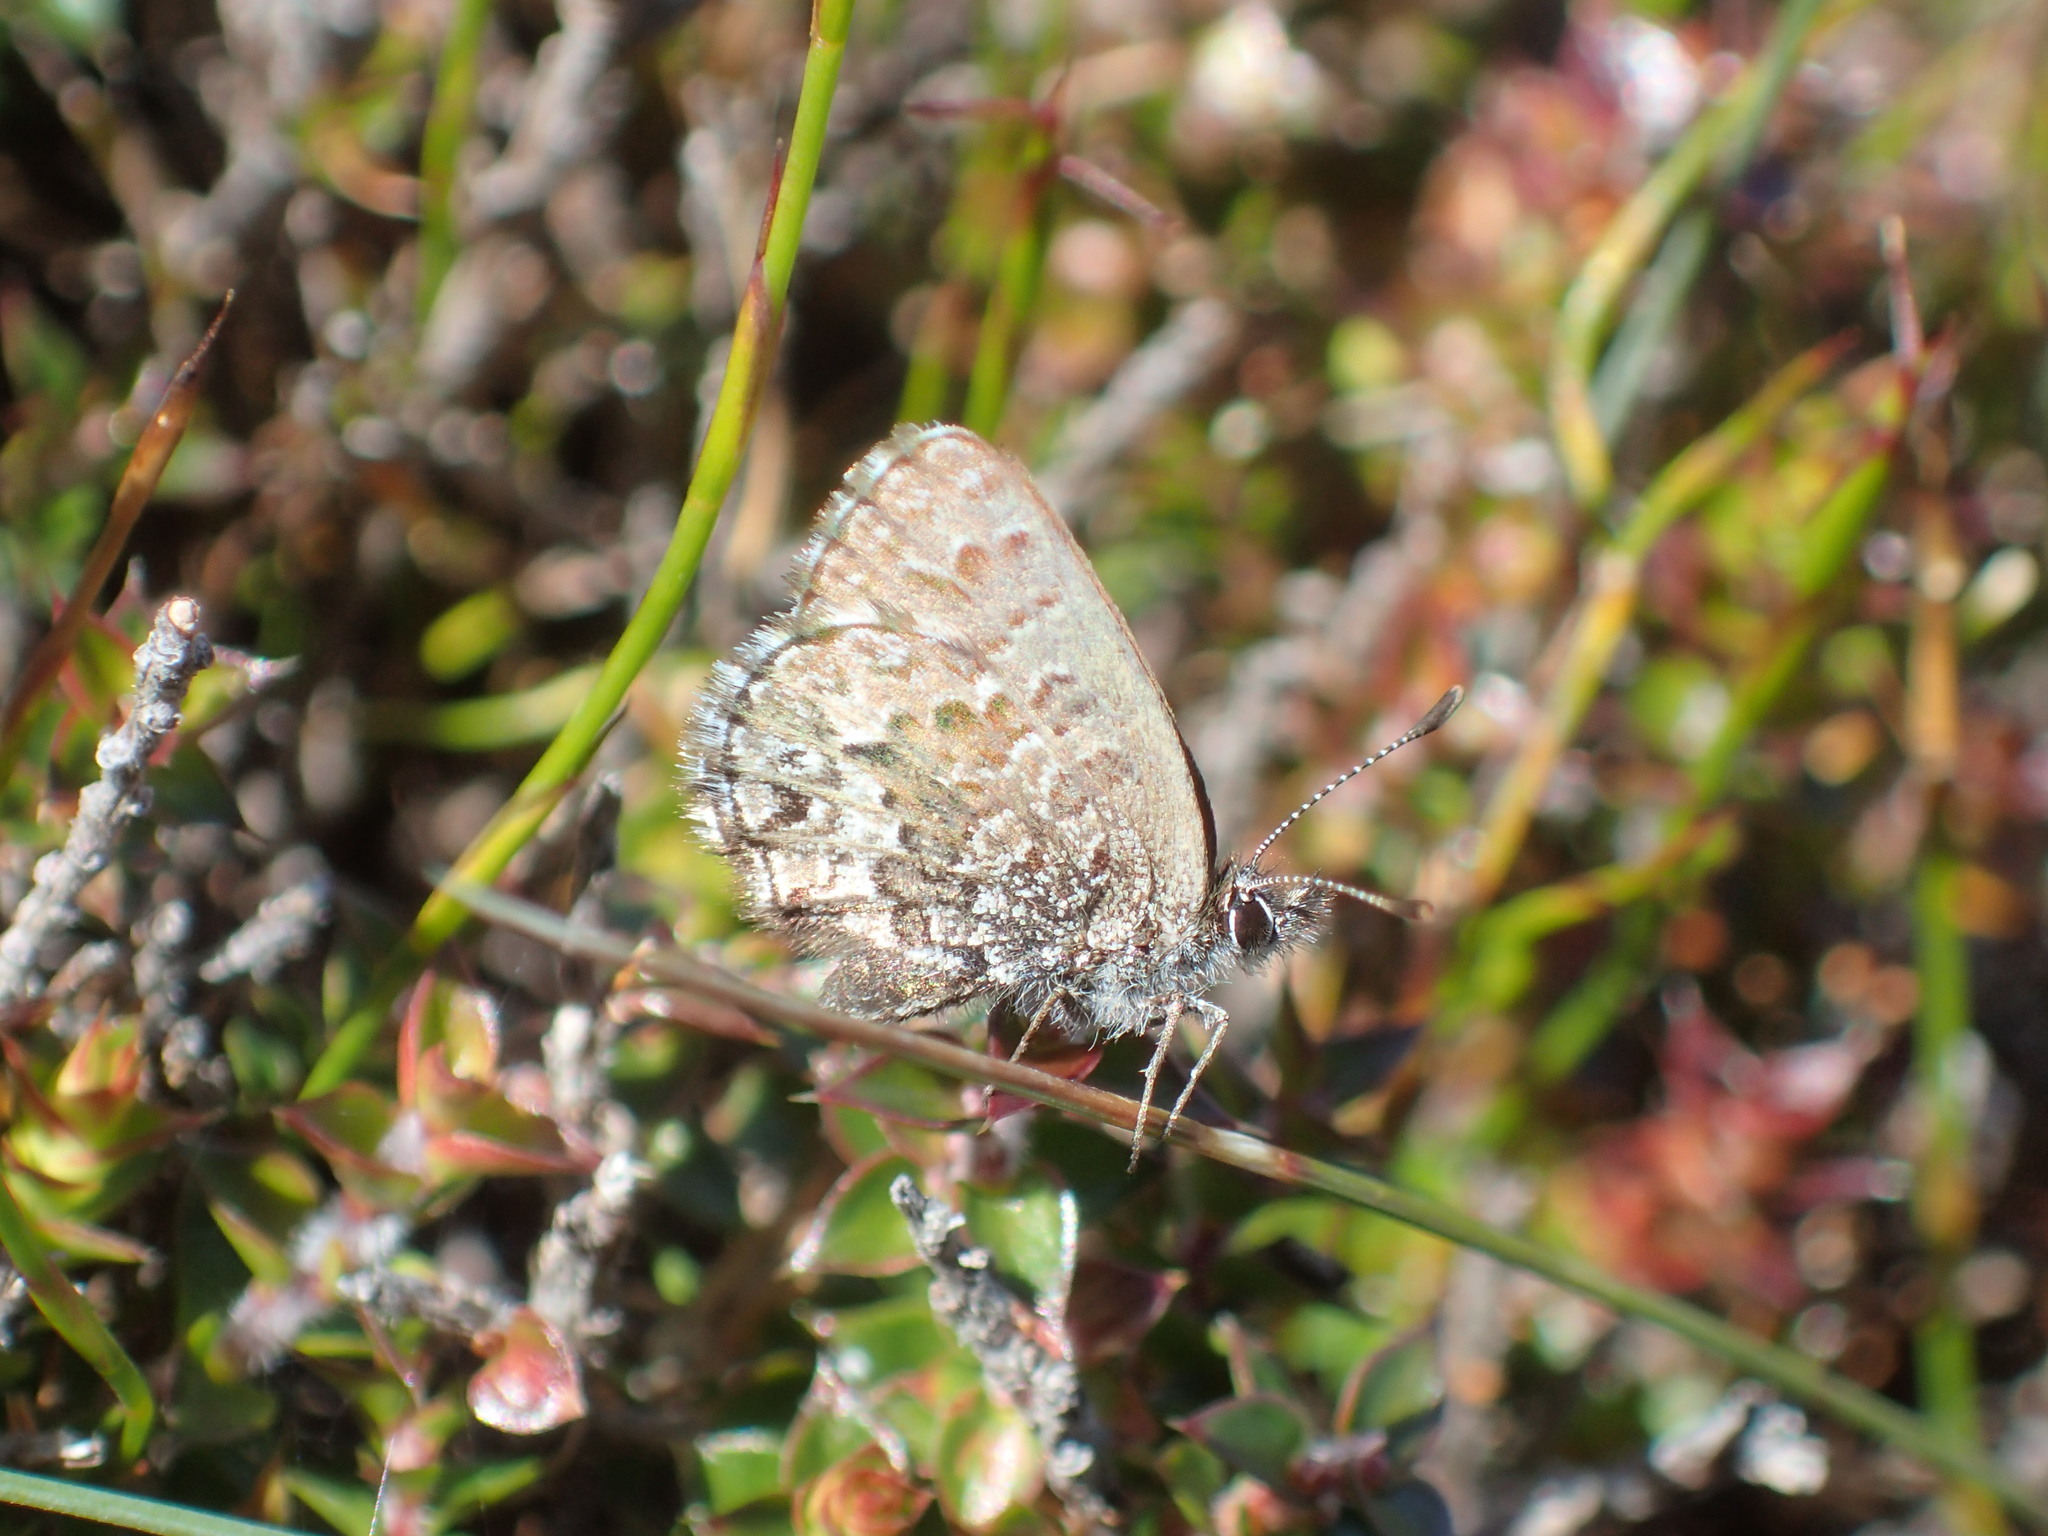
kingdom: Animalia
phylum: Arthropoda
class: Insecta
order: Lepidoptera
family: Lycaenidae
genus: Neolucia
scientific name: Neolucia hobartensis
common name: Mountain blue
